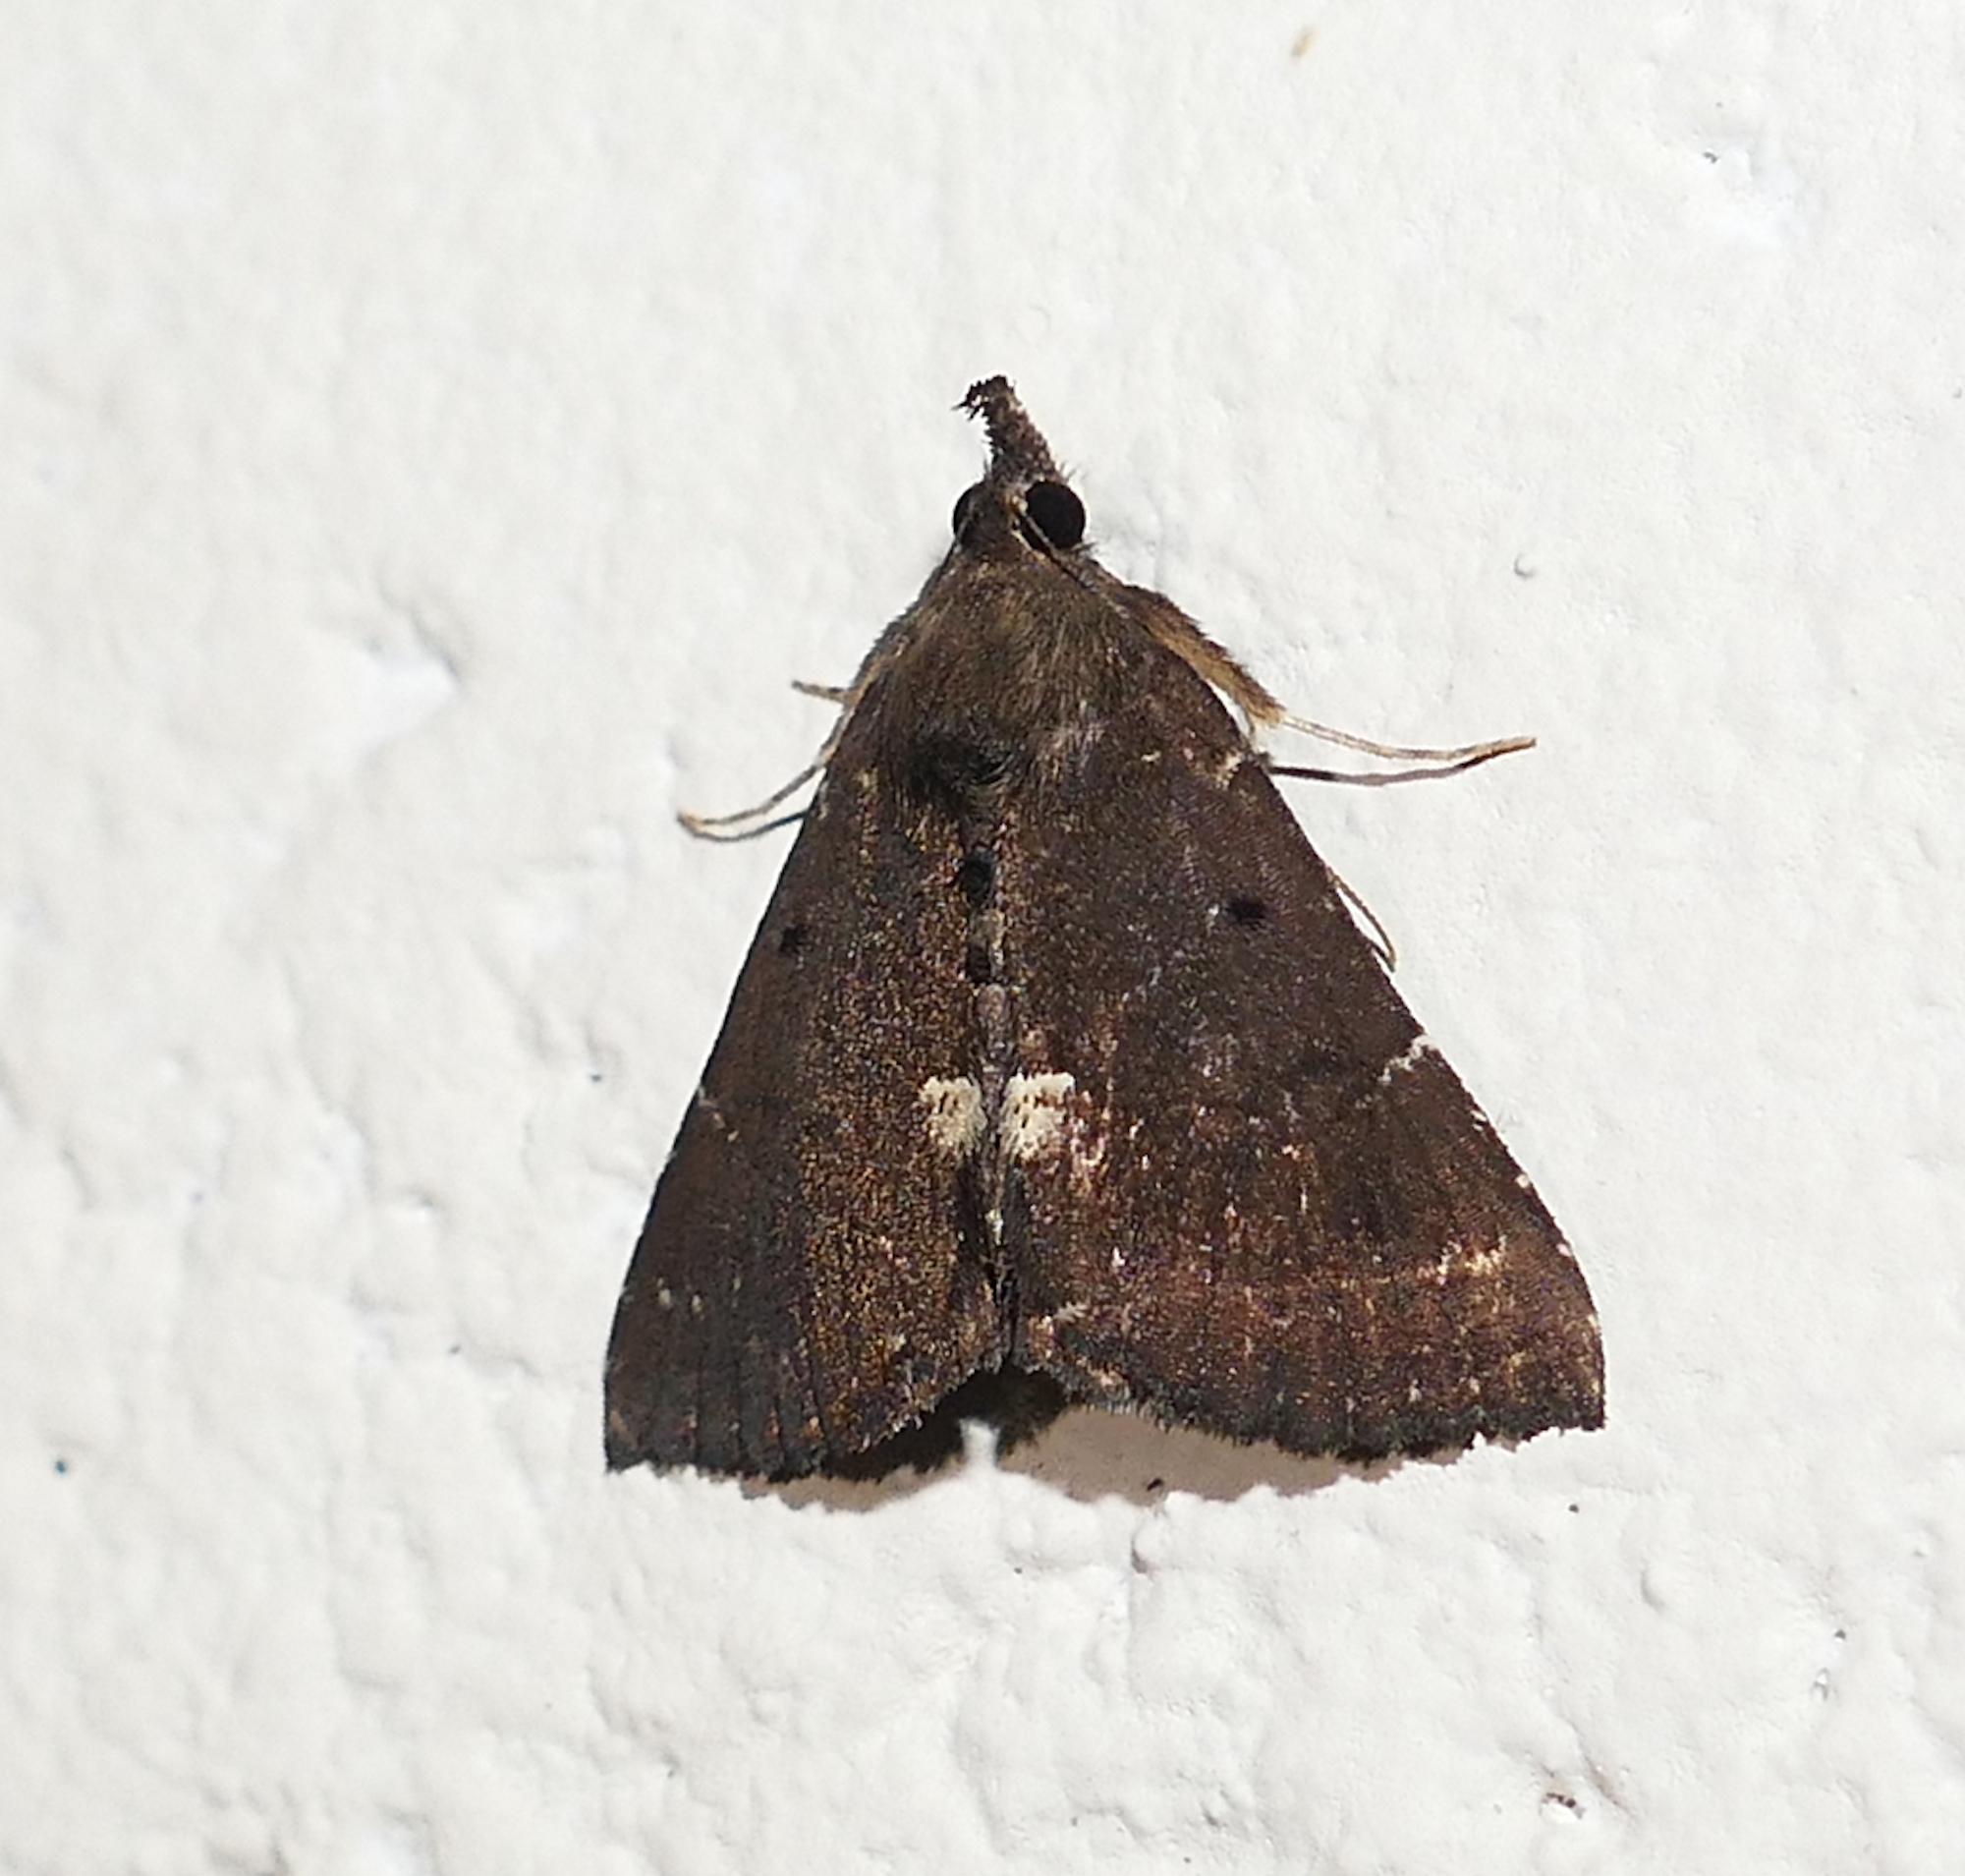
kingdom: Animalia
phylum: Arthropoda
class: Insecta
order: Lepidoptera
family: Erebidae
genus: Hypena
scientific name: Hypena bijugalis
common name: Dimorphic bomolocha moth
